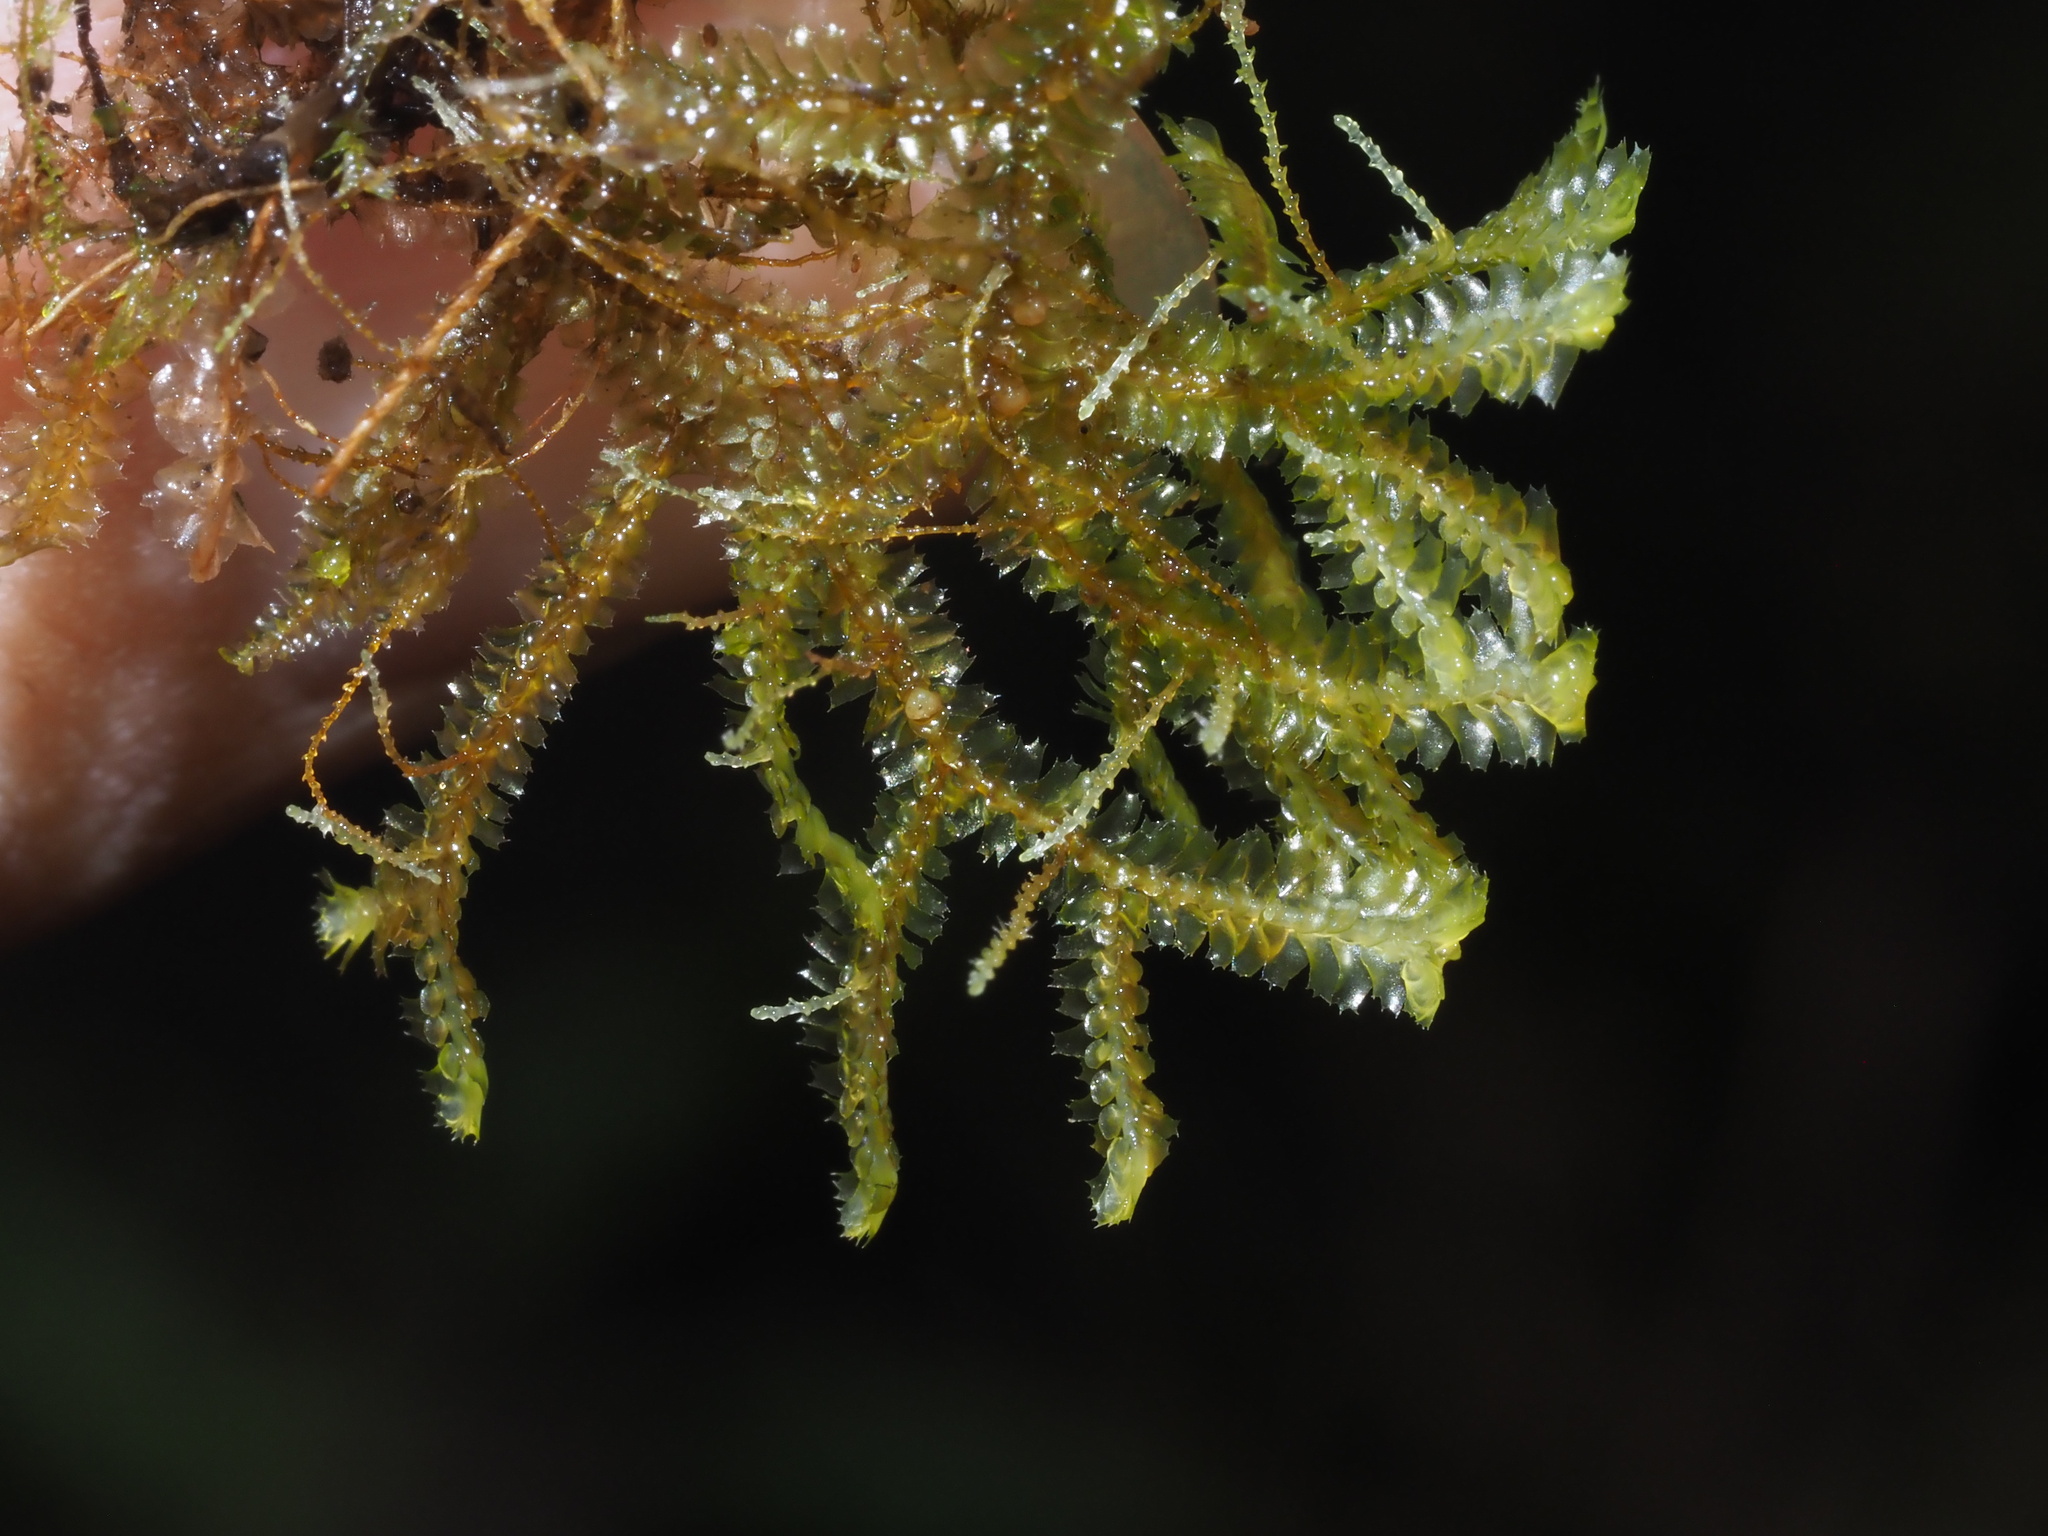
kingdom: Plantae
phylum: Marchantiophyta
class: Jungermanniopsida
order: Jungermanniales
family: Lepidoziaceae
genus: Bazzania
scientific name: Bazzania praerupta
